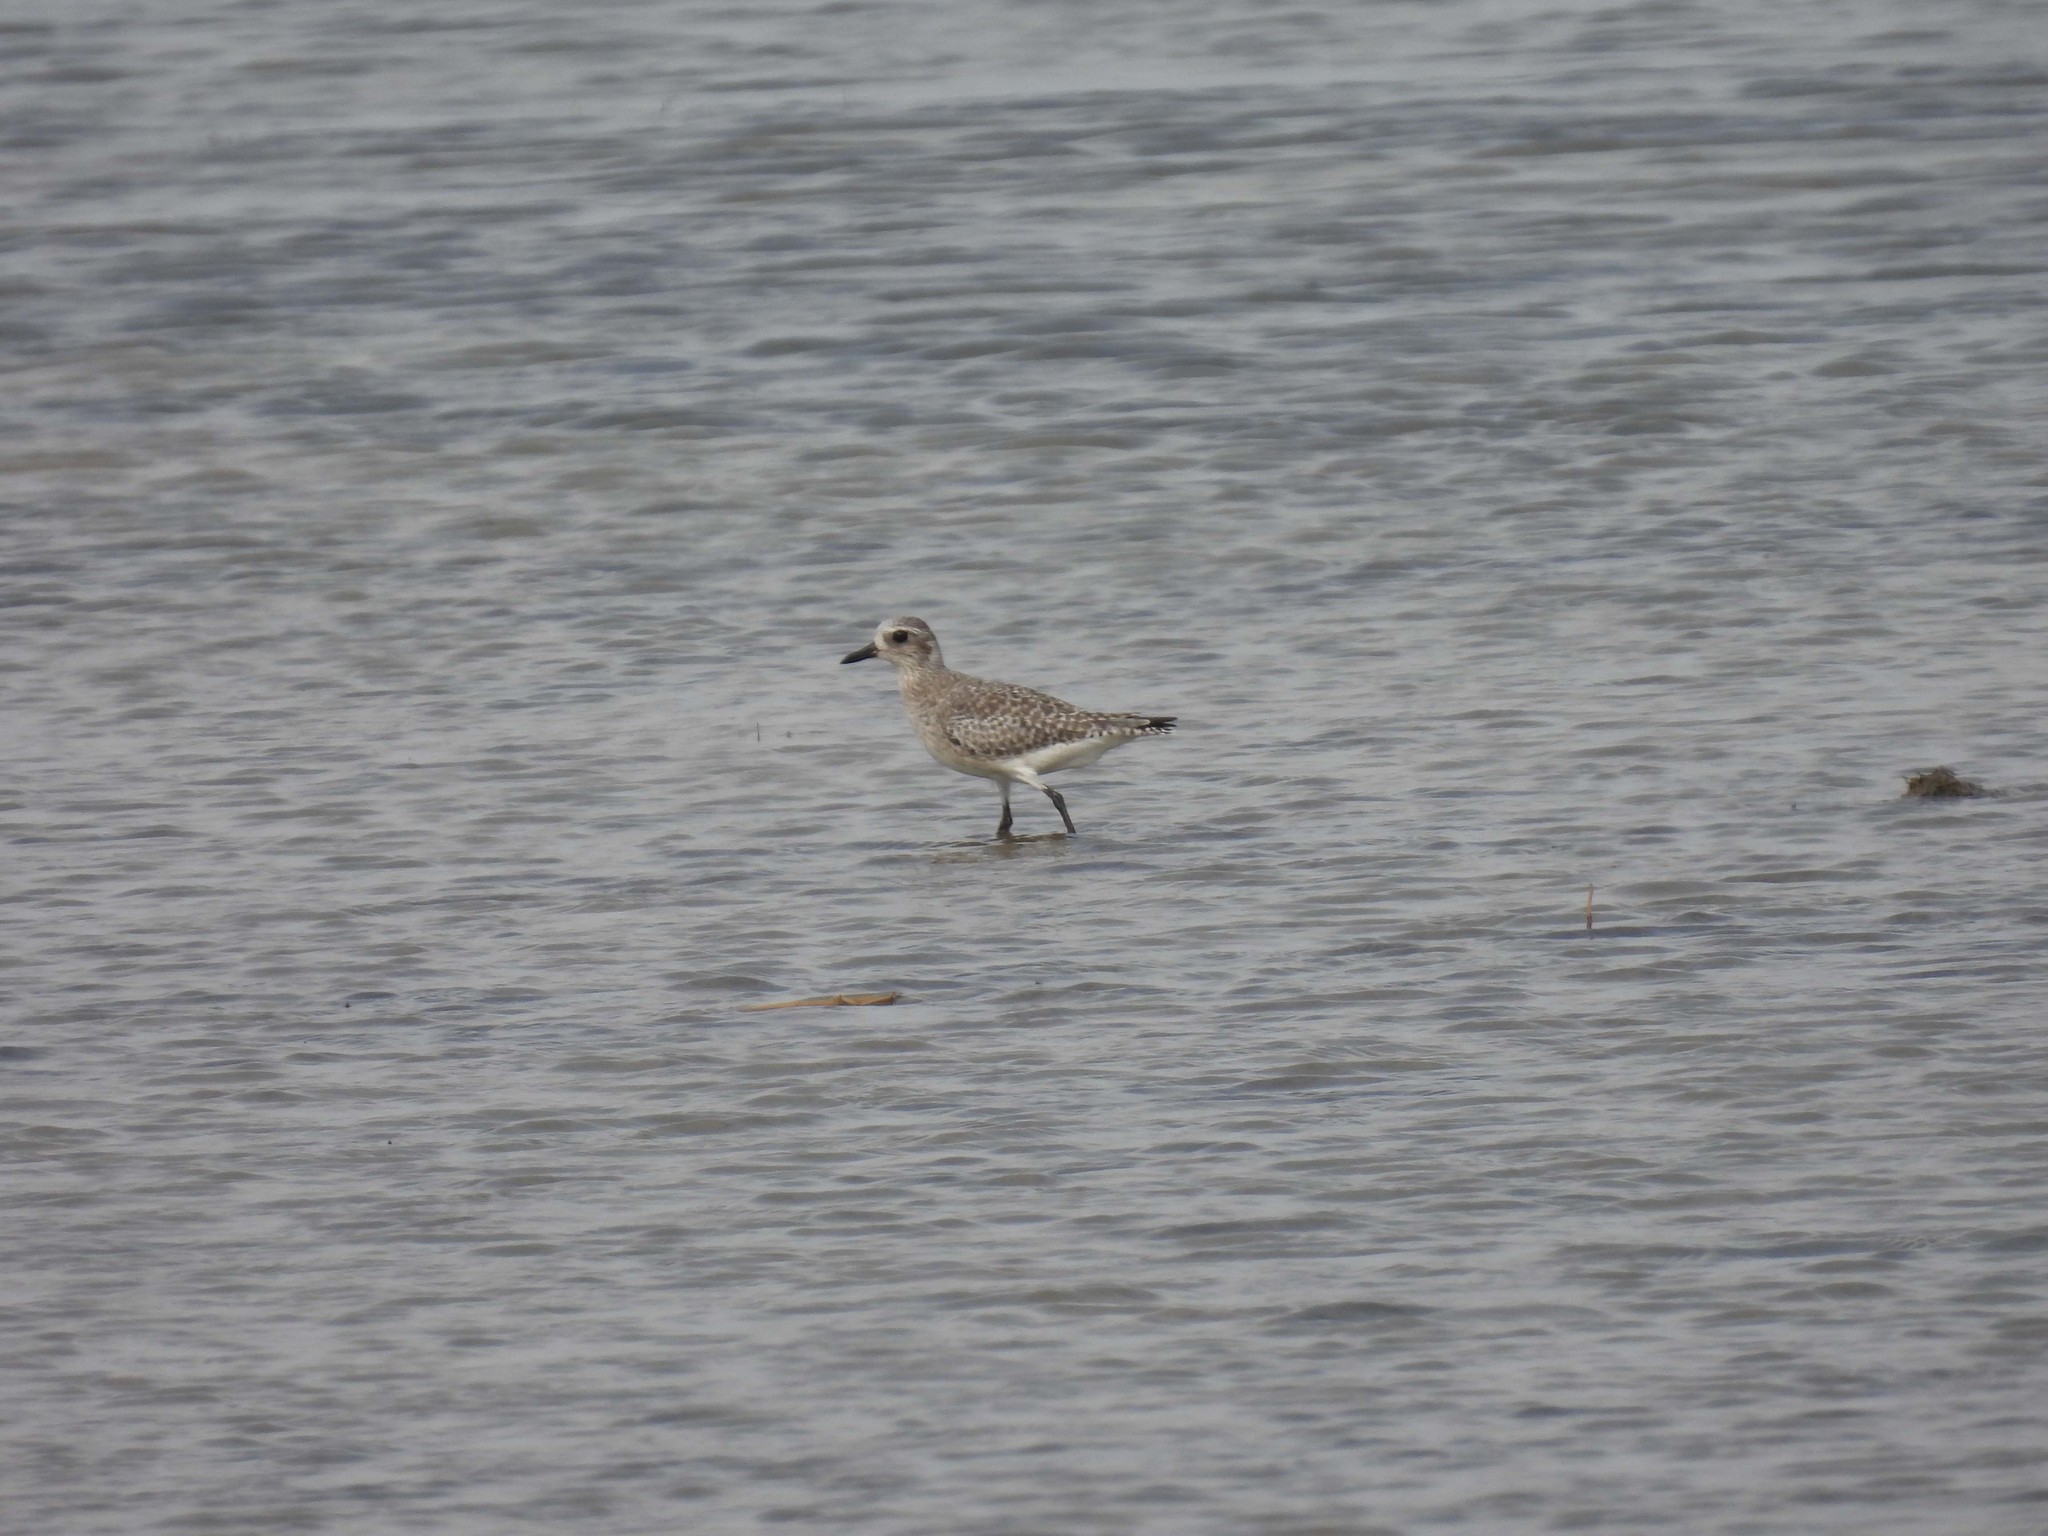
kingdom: Animalia
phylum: Chordata
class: Aves
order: Charadriiformes
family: Charadriidae
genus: Pluvialis
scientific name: Pluvialis squatarola
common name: Grey plover
